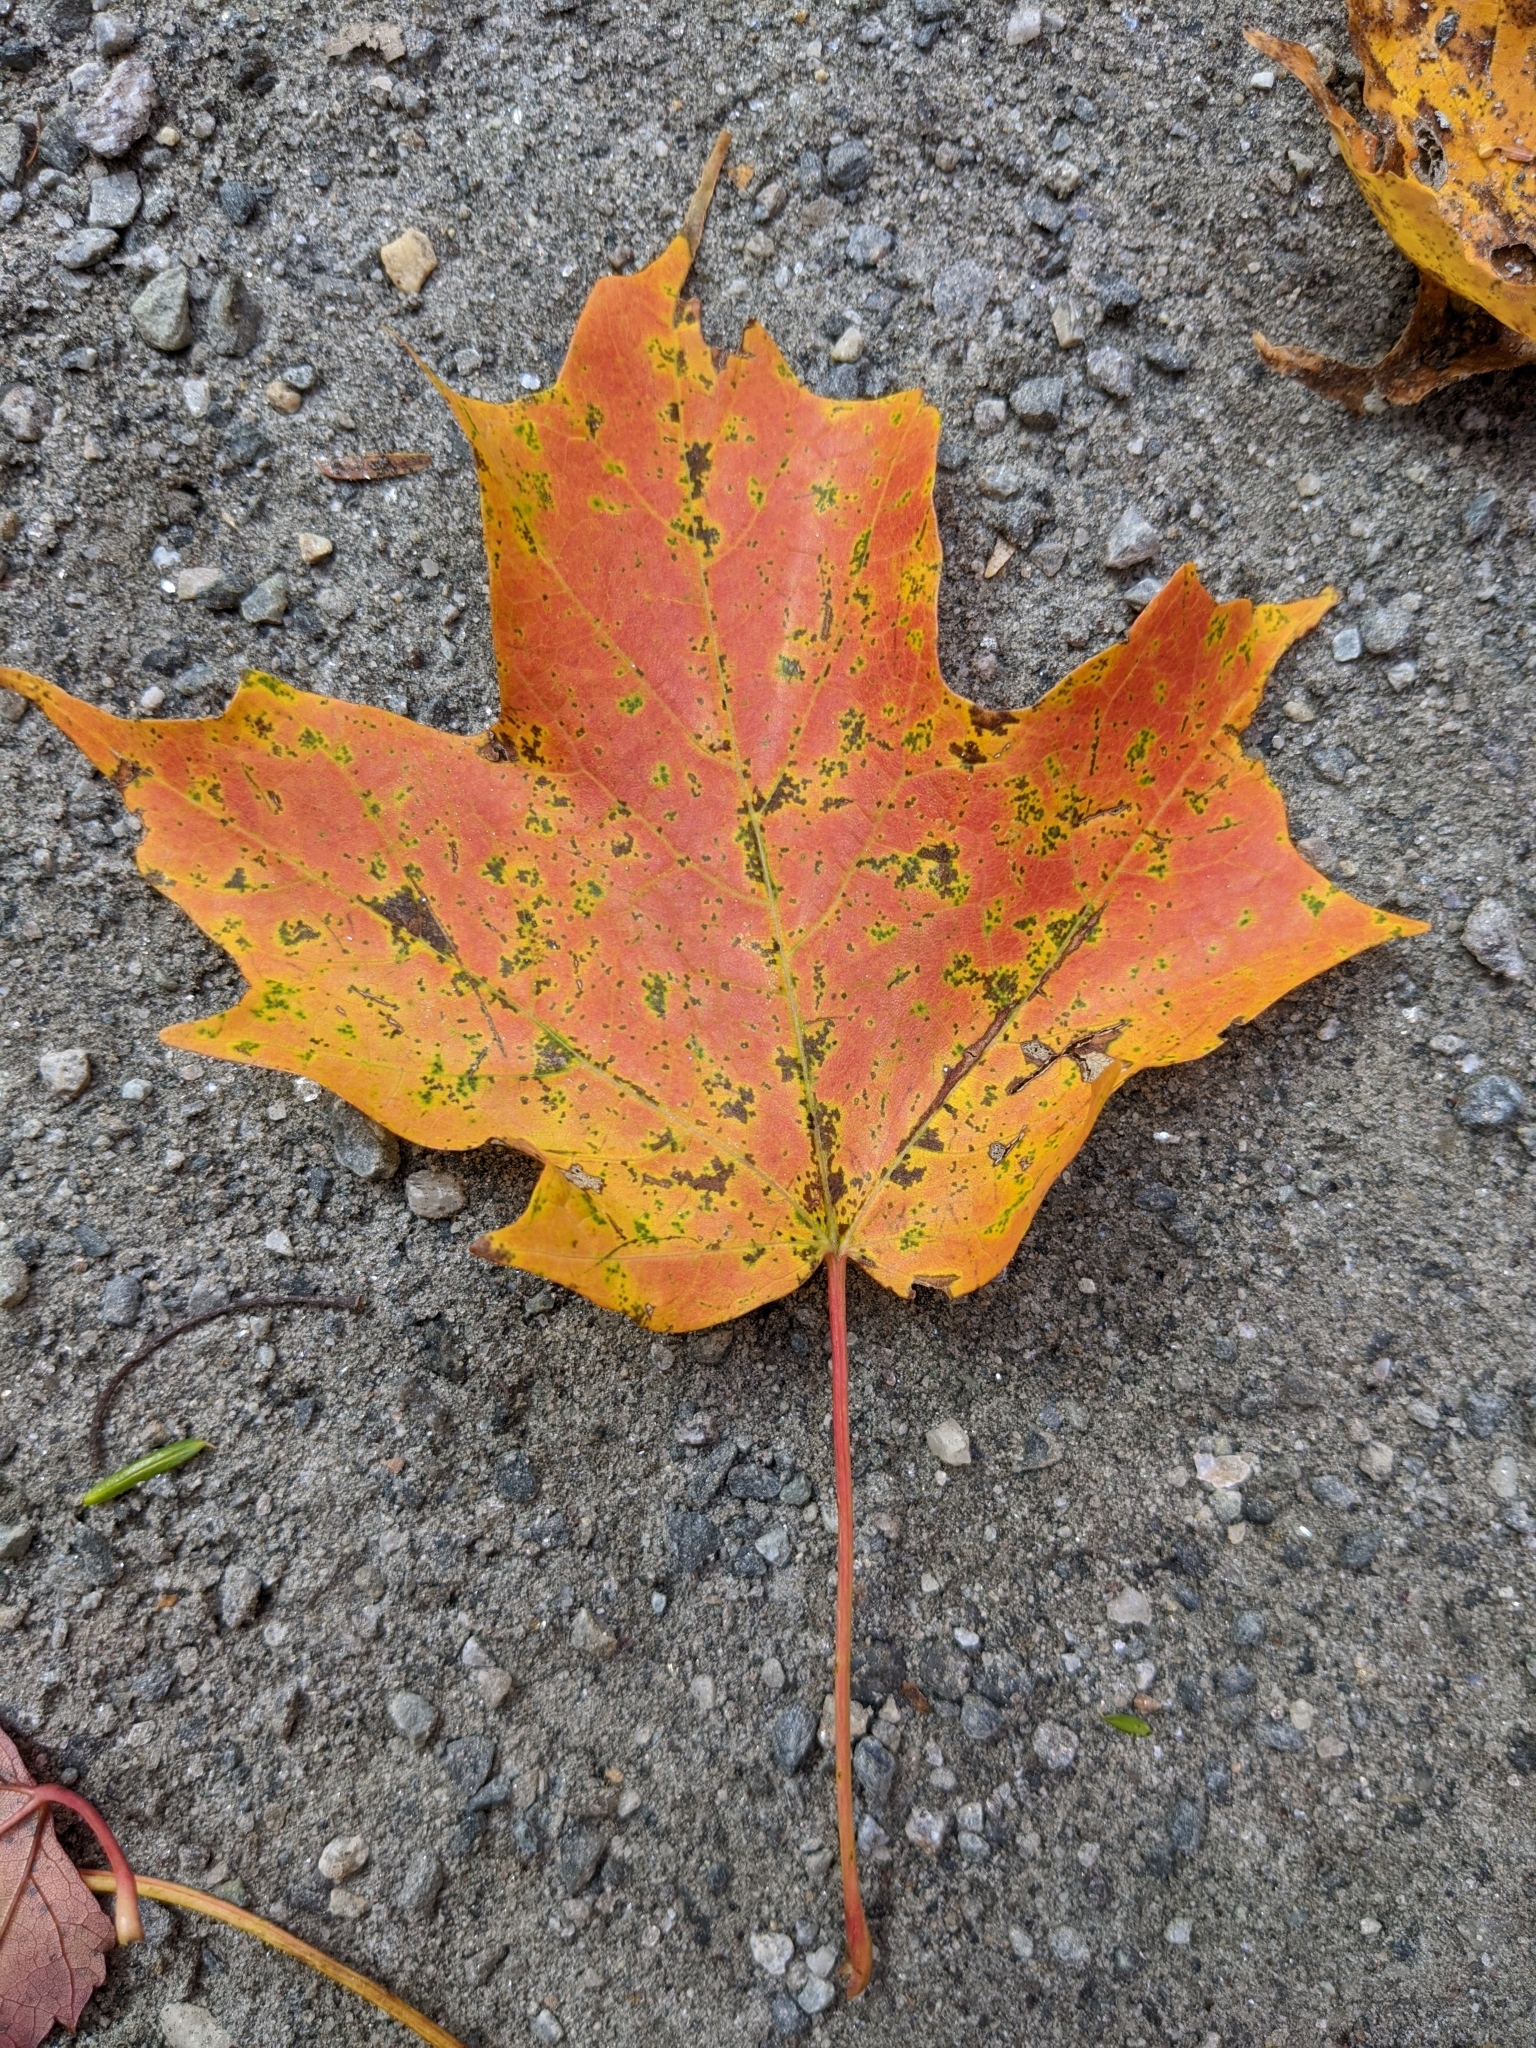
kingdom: Plantae
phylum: Tracheophyta
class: Magnoliopsida
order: Sapindales
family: Sapindaceae
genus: Acer
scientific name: Acer saccharum
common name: Sugar maple
